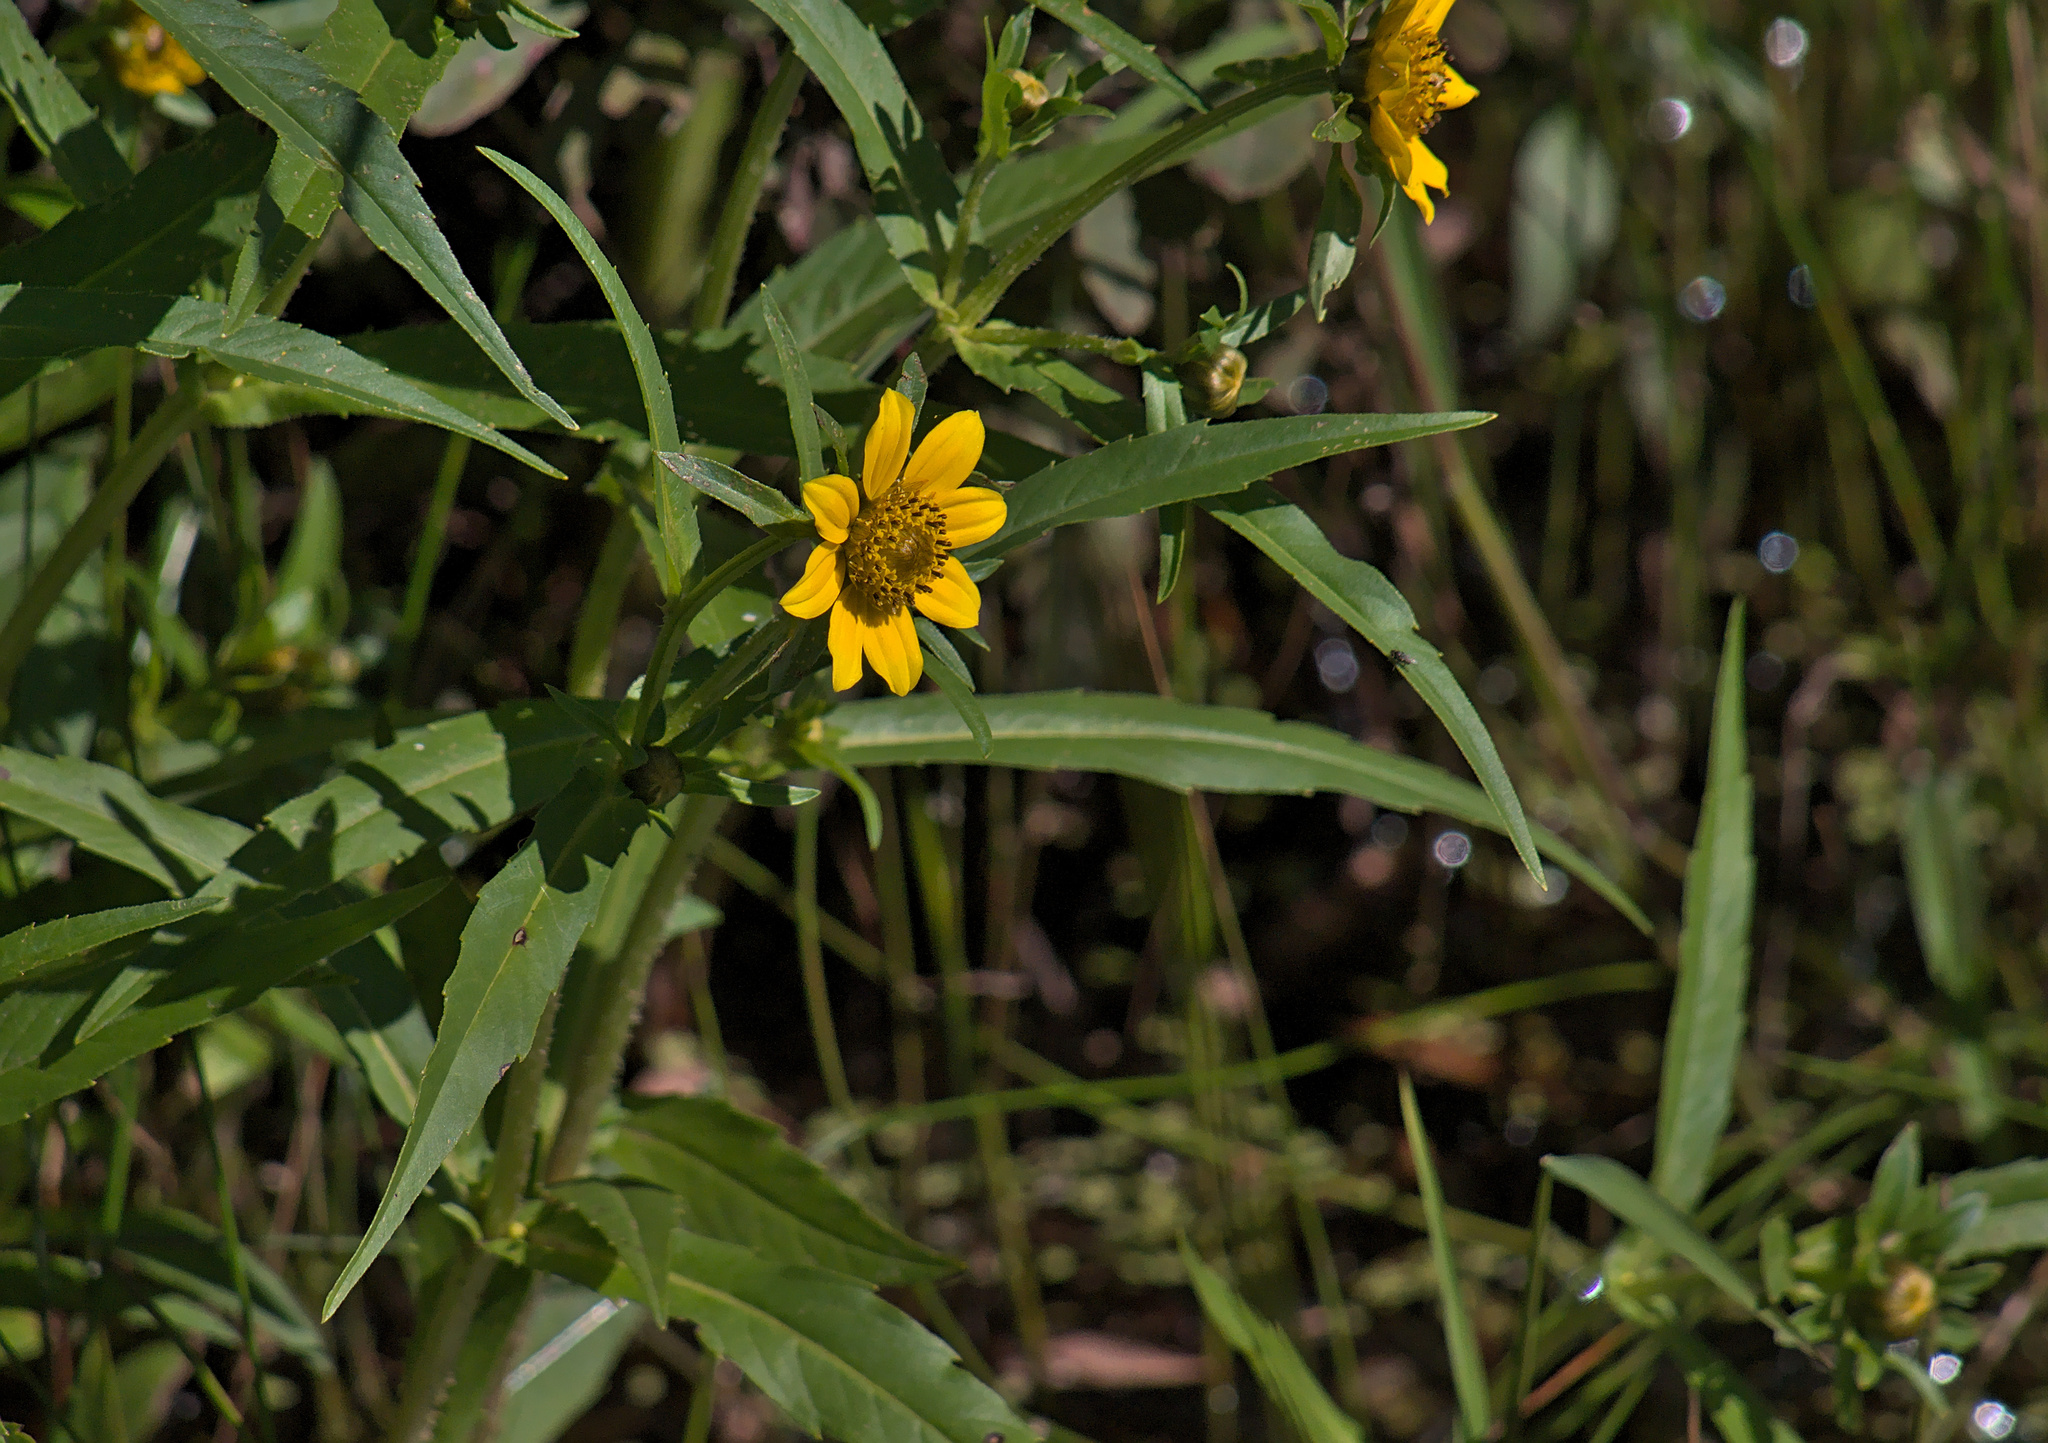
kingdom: Plantae
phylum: Tracheophyta
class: Magnoliopsida
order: Asterales
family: Asteraceae
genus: Bidens
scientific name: Bidens cernua
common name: Nodding bur-marigold
